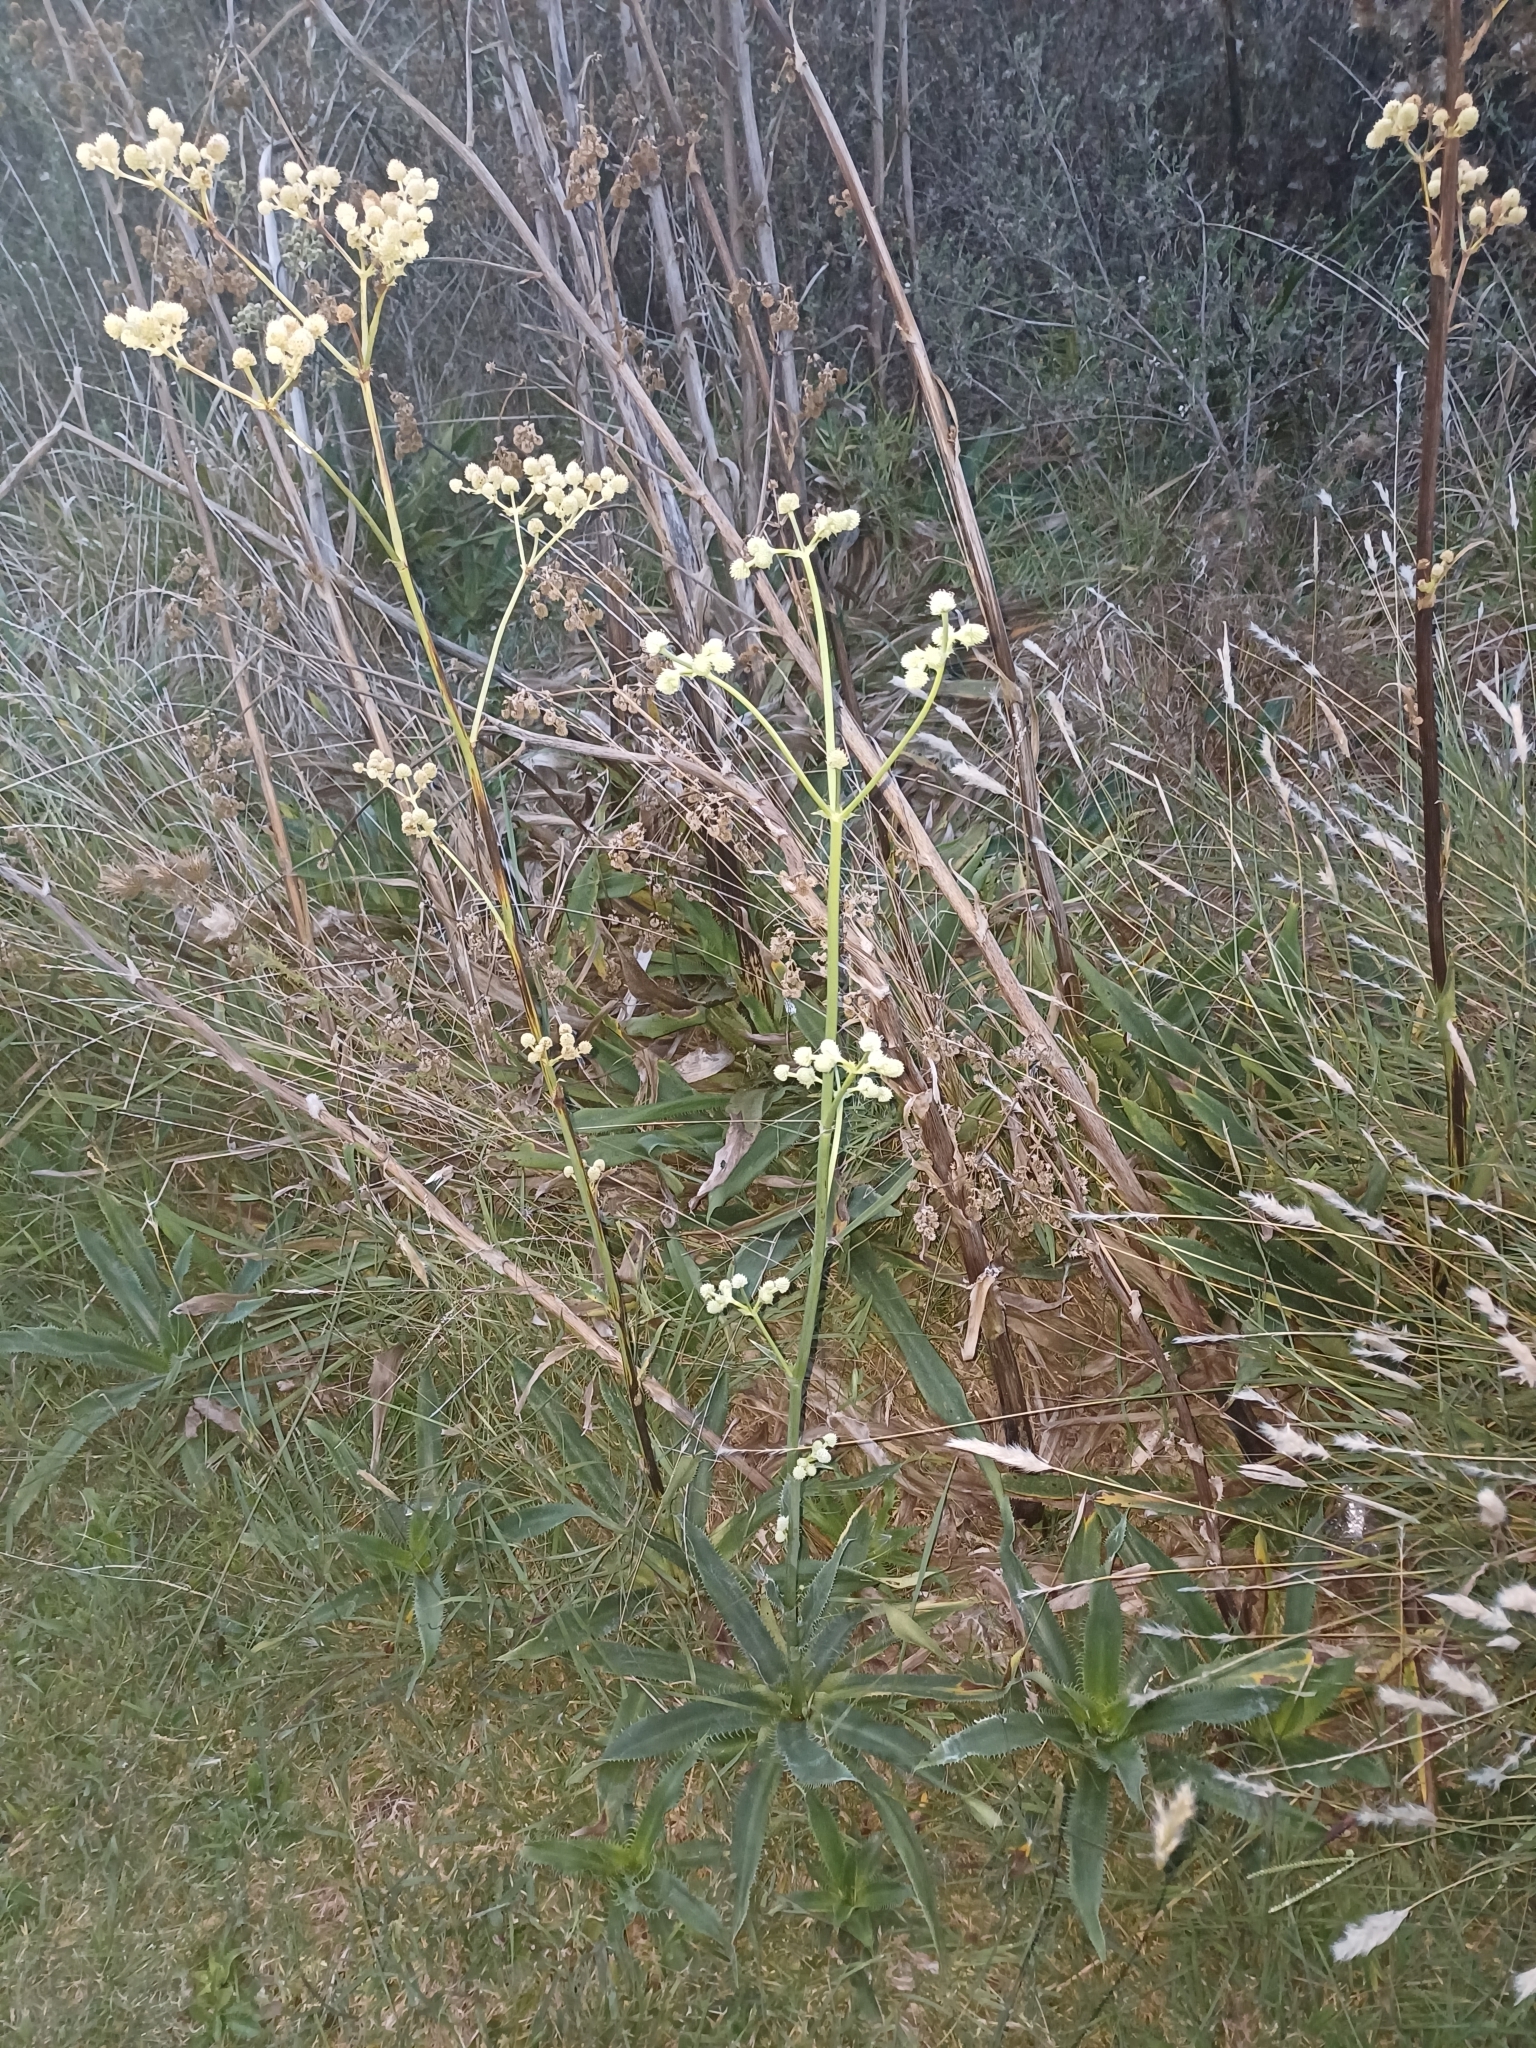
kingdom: Plantae
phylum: Tracheophyta
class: Magnoliopsida
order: Apiales
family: Apiaceae
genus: Eryngium
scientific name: Eryngium elegans
